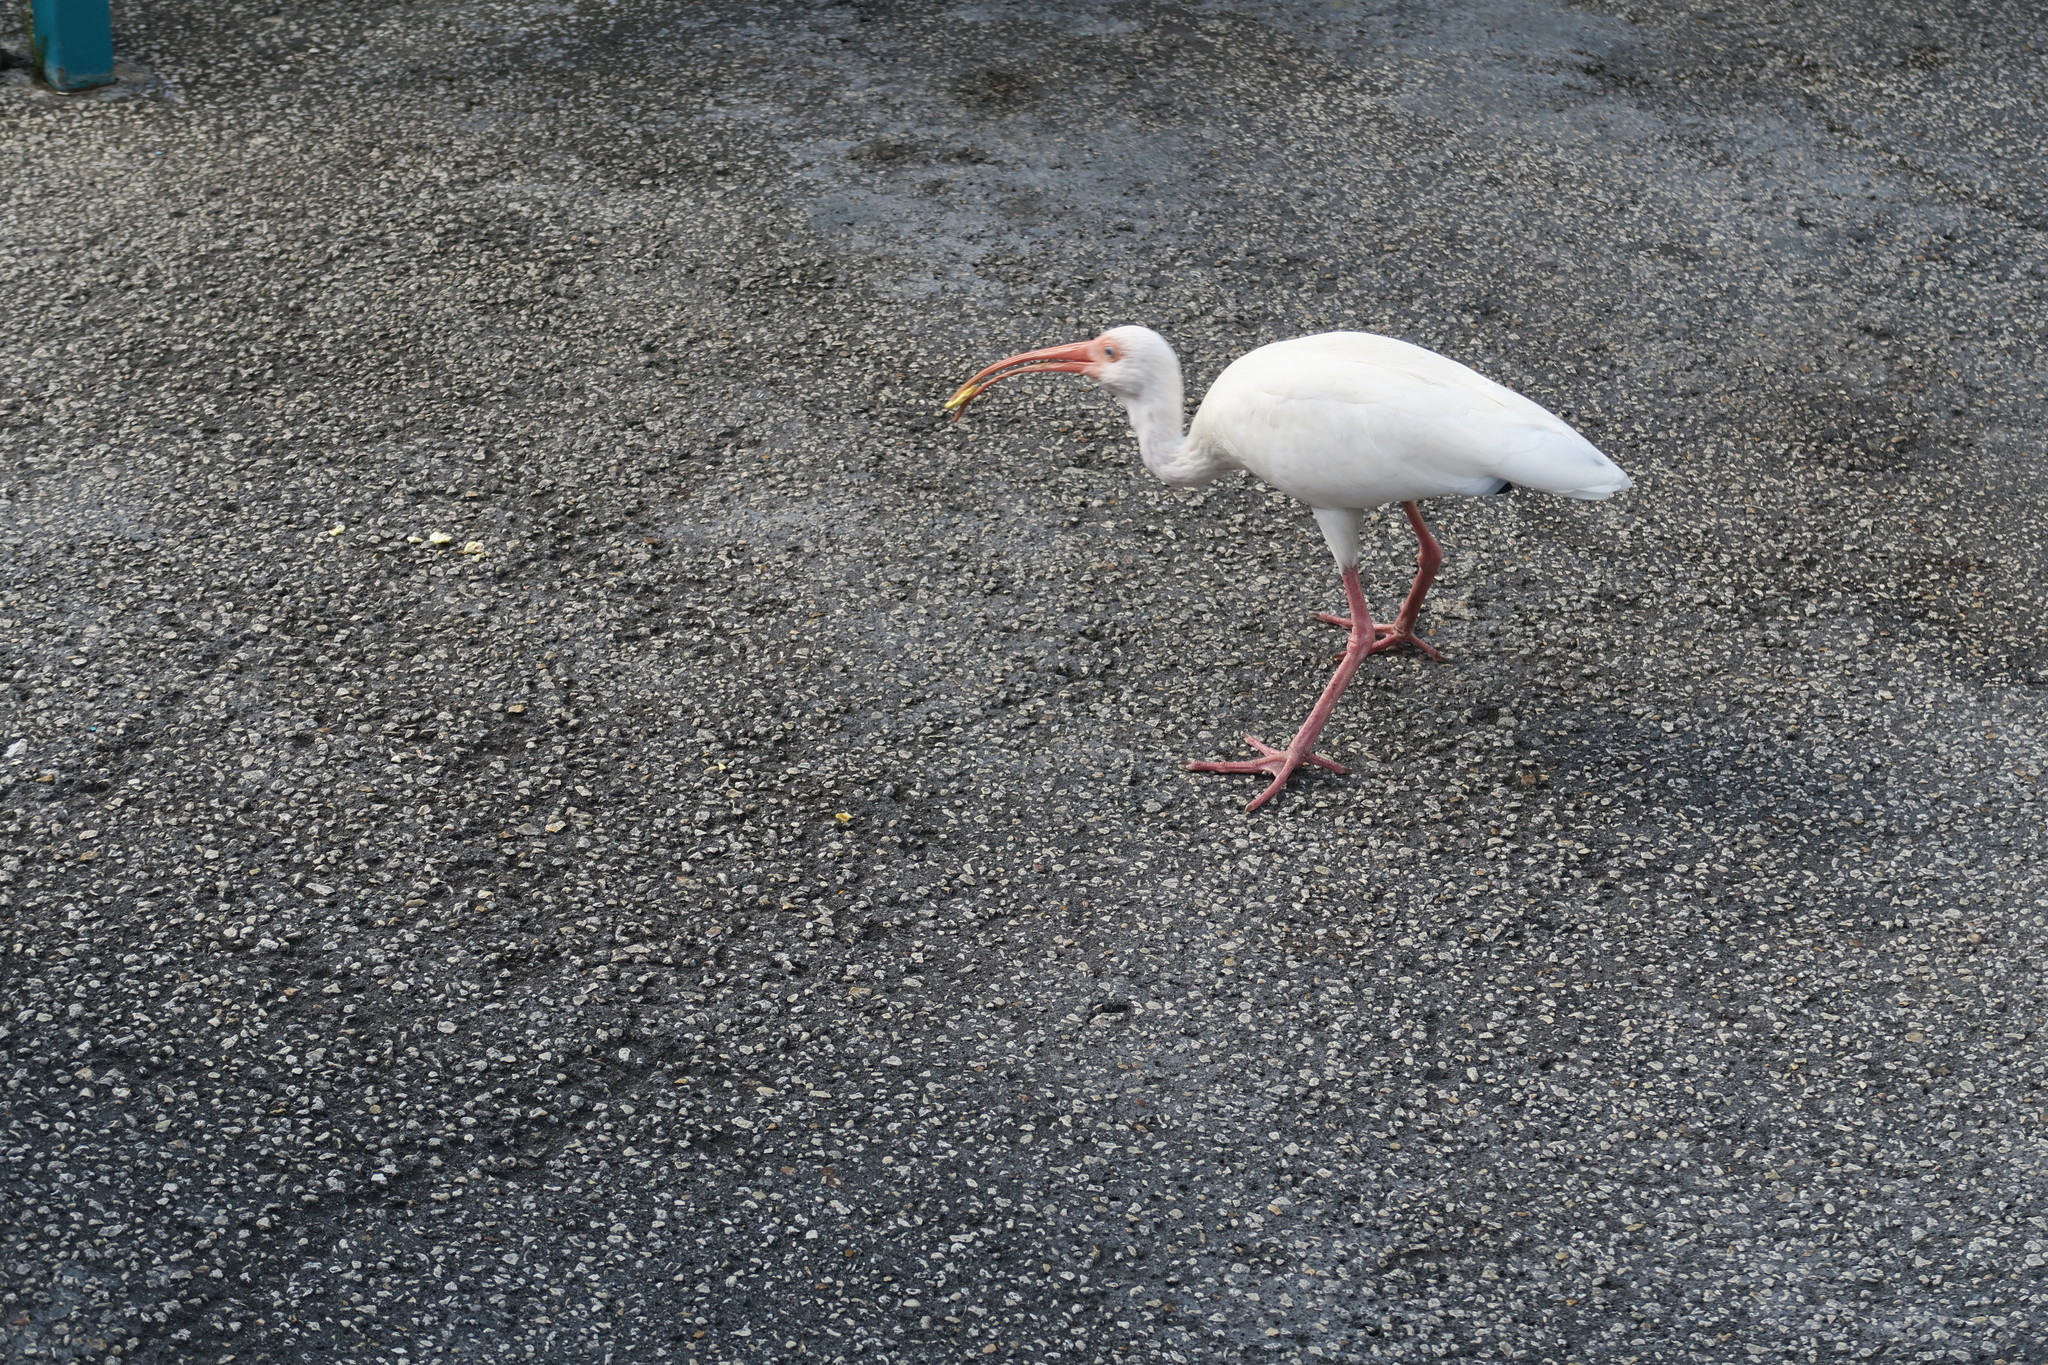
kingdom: Animalia
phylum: Chordata
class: Aves
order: Pelecaniformes
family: Threskiornithidae
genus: Eudocimus
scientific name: Eudocimus albus
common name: White ibis
